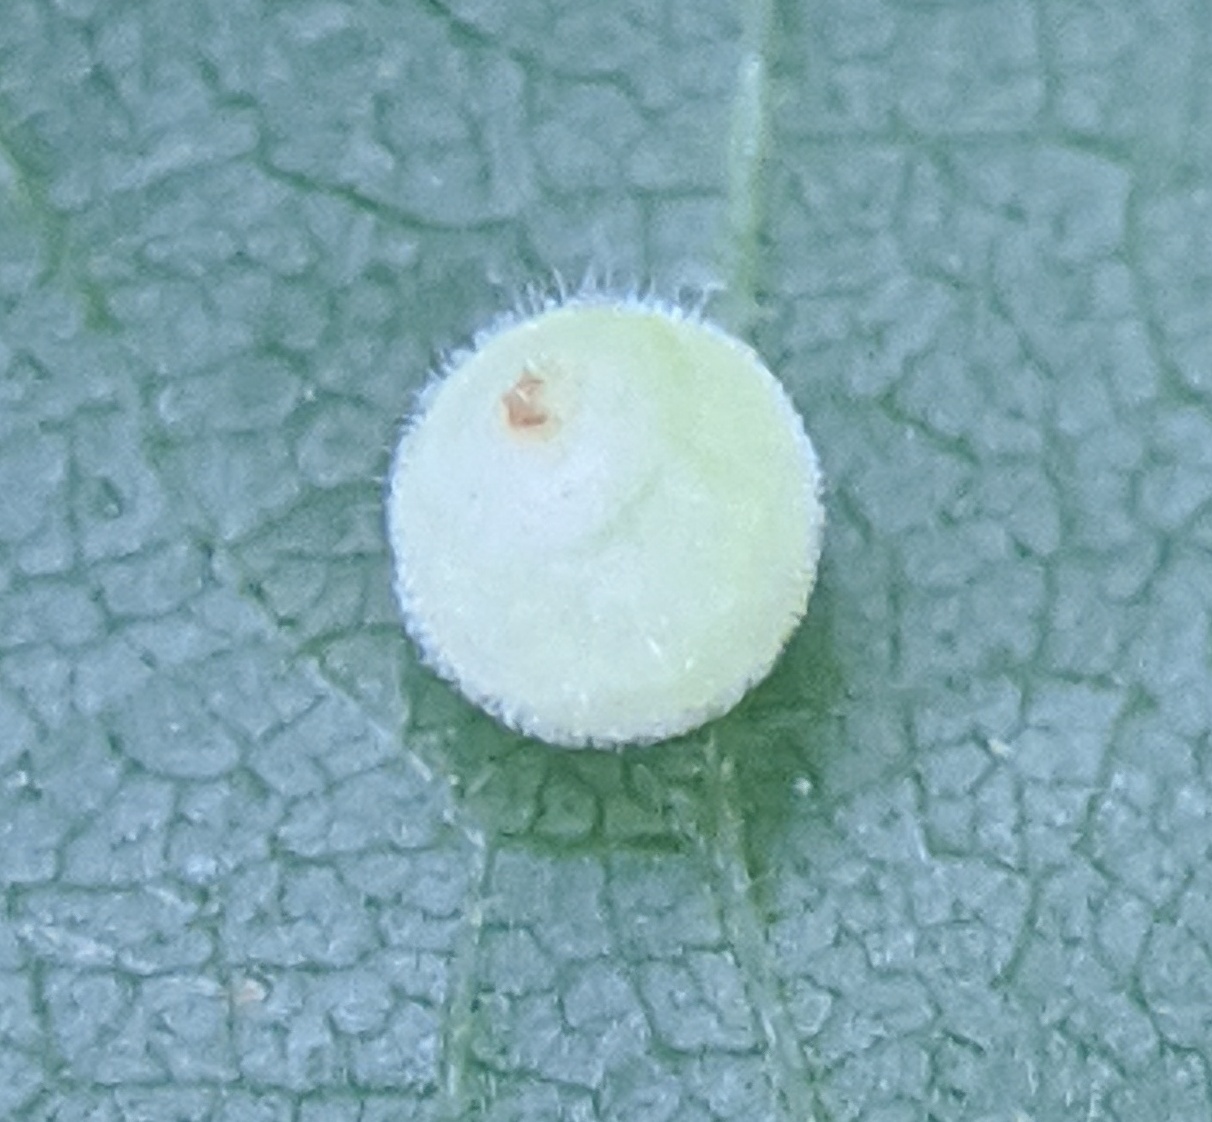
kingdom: Animalia
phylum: Arthropoda
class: Insecta
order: Diptera
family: Cecidomyiidae
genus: Caryomyia
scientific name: Caryomyia cilidolium
